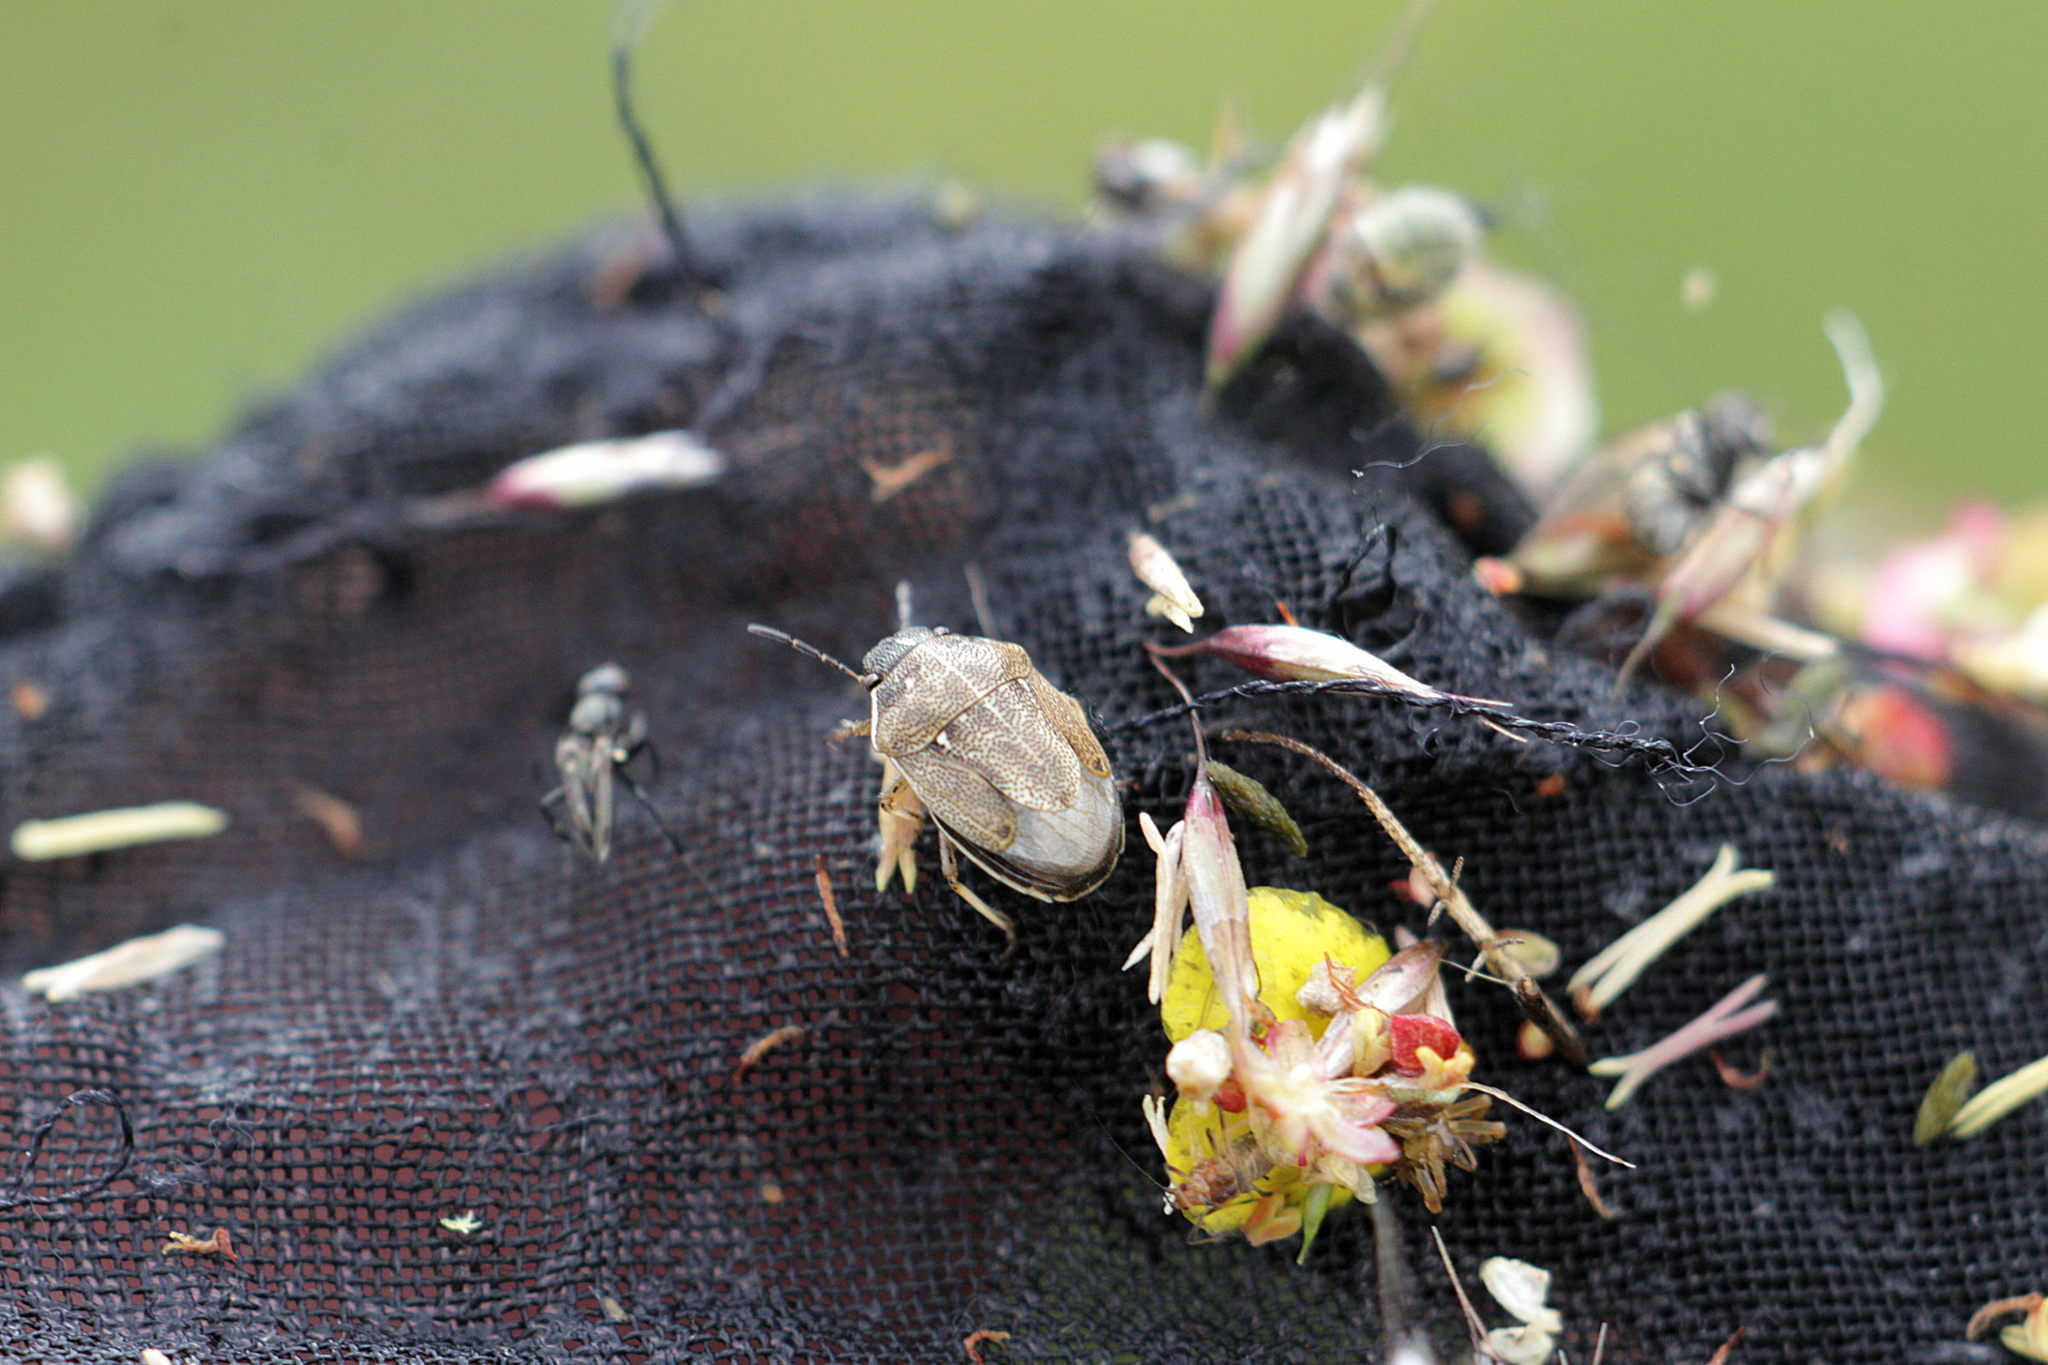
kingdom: Animalia
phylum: Arthropoda
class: Insecta
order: Hemiptera
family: Pentatomidae
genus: Neottiglossa
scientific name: Neottiglossa pusilla
